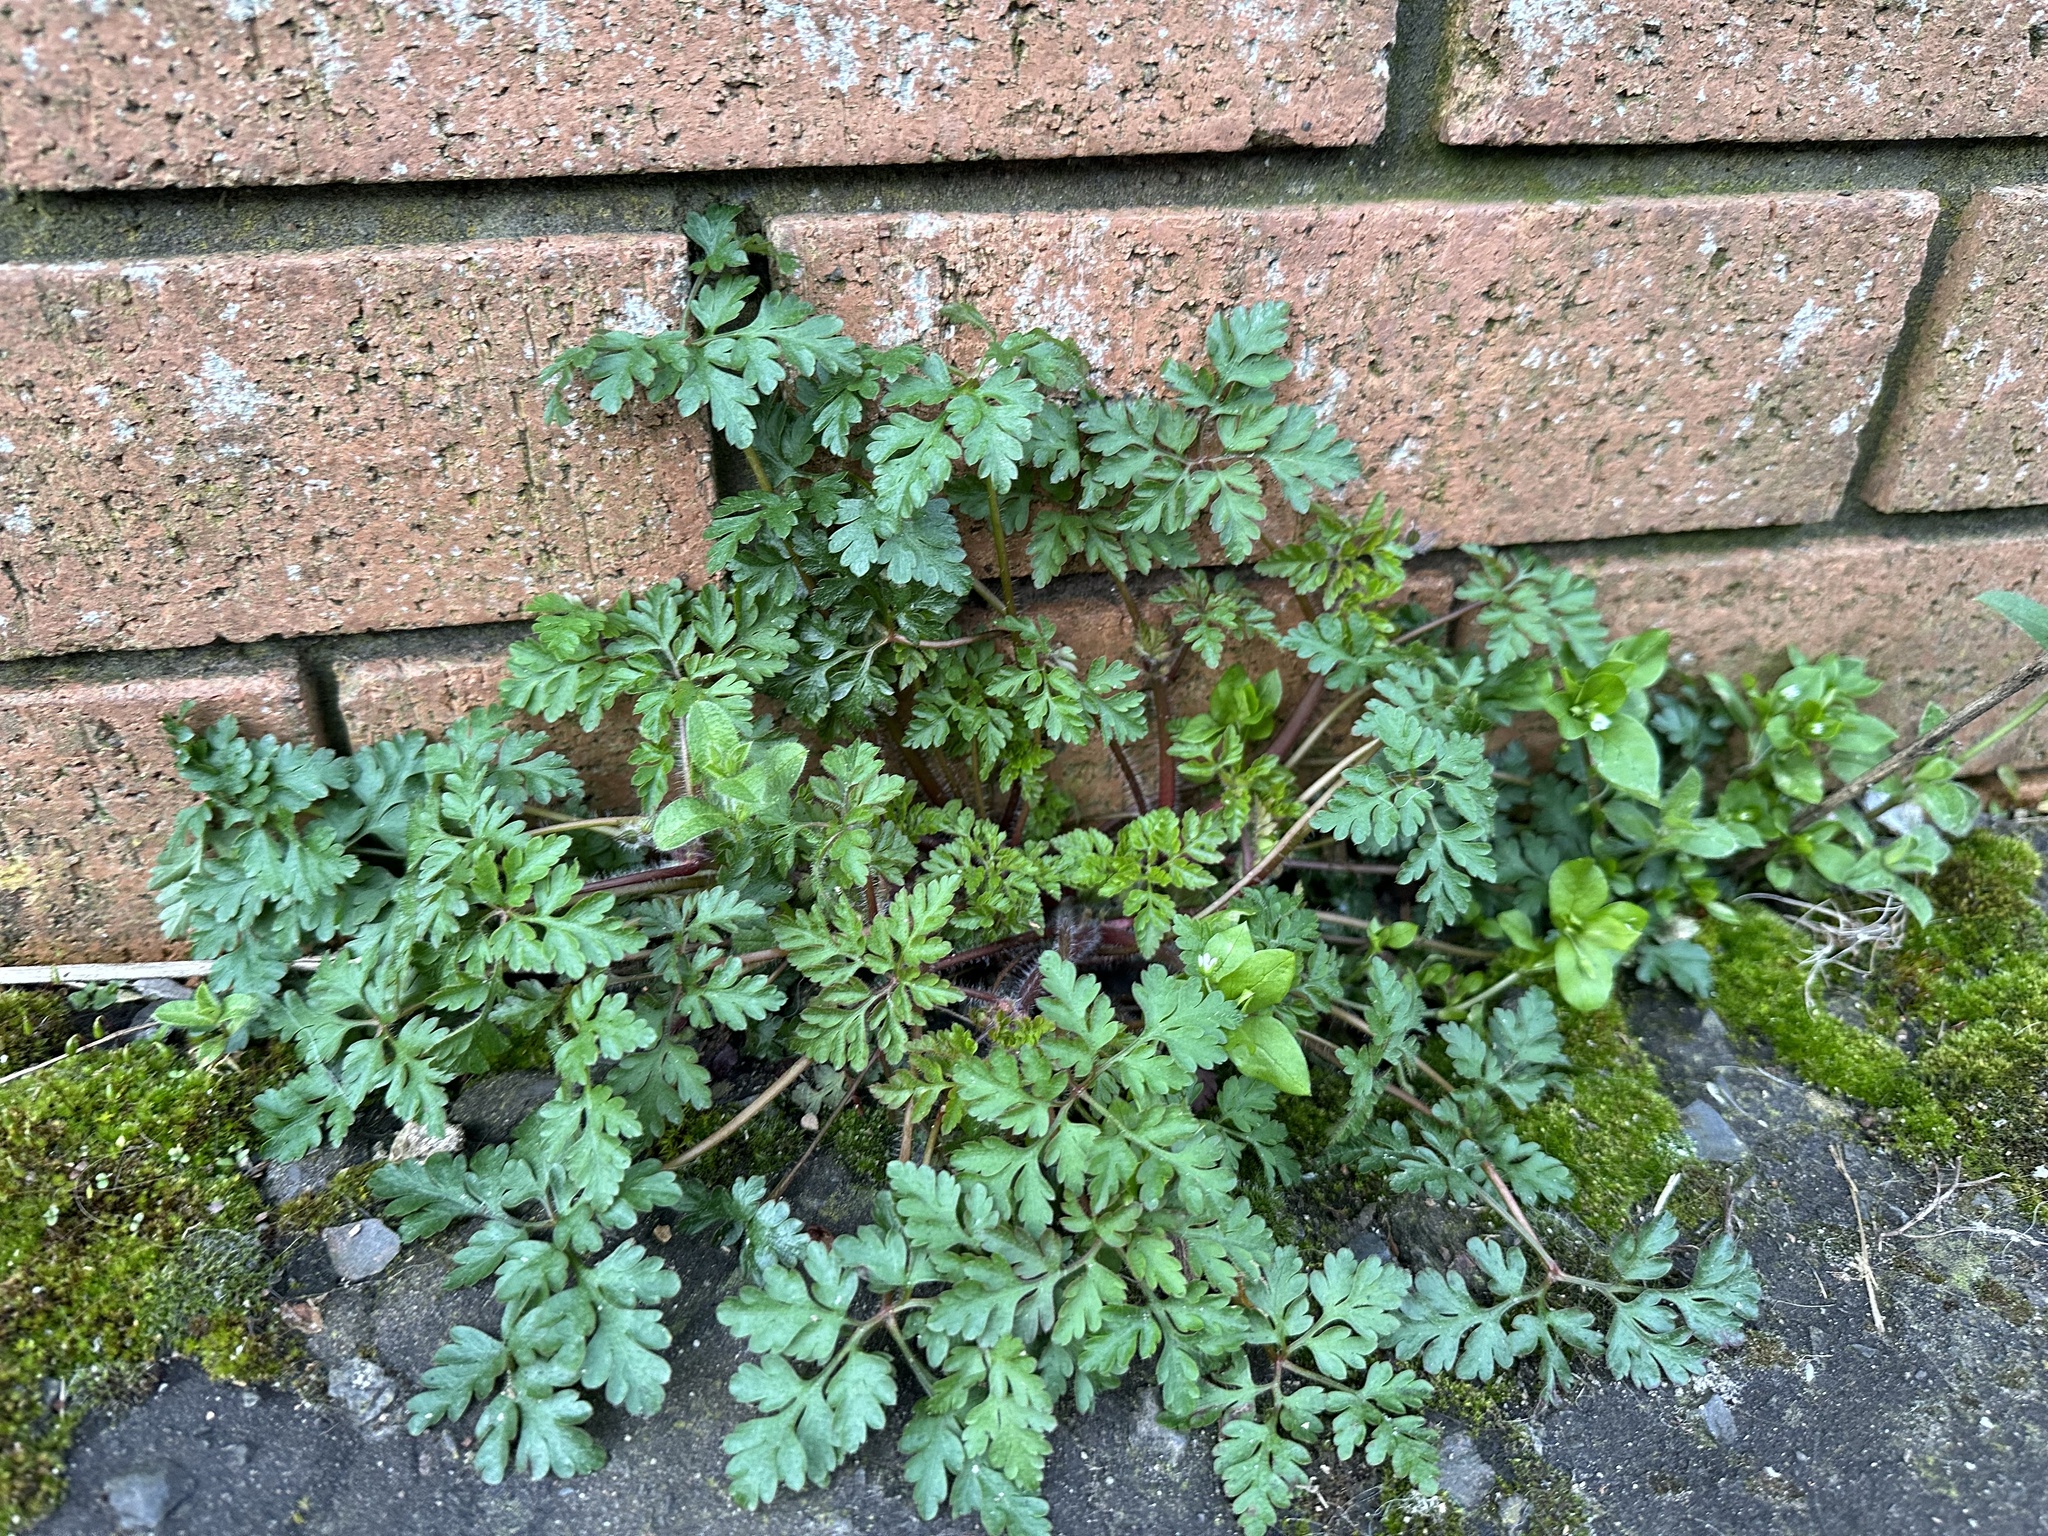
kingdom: Plantae
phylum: Tracheophyta
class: Magnoliopsida
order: Geraniales
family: Geraniaceae
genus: Geranium
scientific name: Geranium robertianum
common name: Herb-robert
